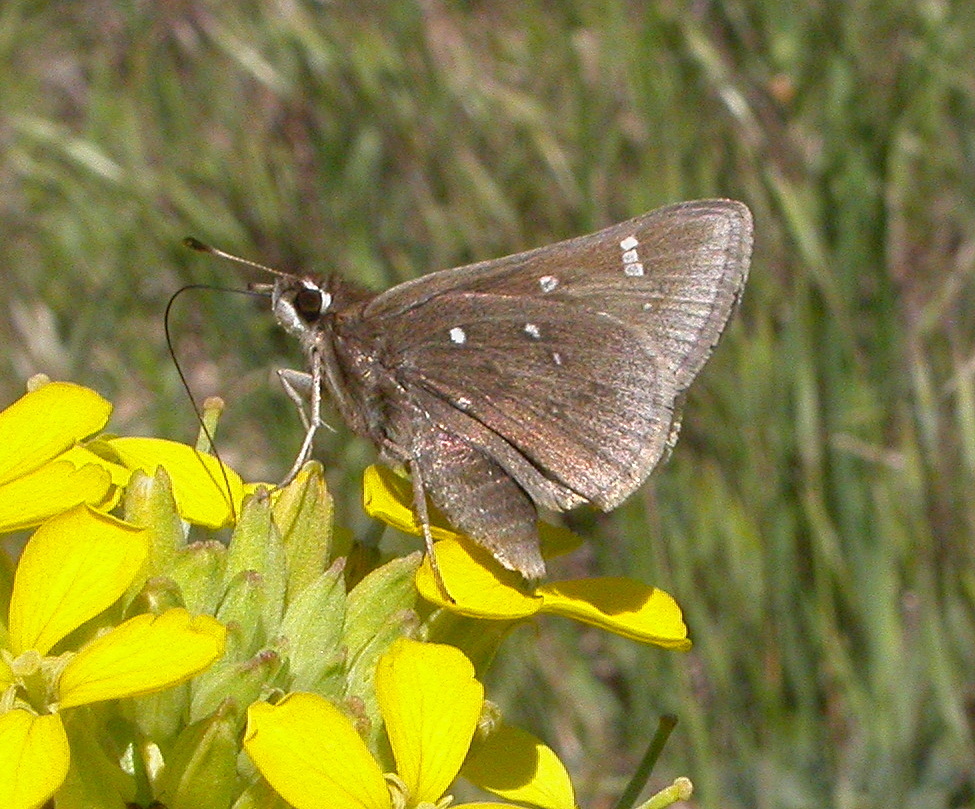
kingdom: Animalia
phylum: Arthropoda
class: Insecta
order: Lepidoptera
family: Hesperiidae
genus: Atrytonopsis
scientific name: Atrytonopsis hianna
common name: Dusted skipper
